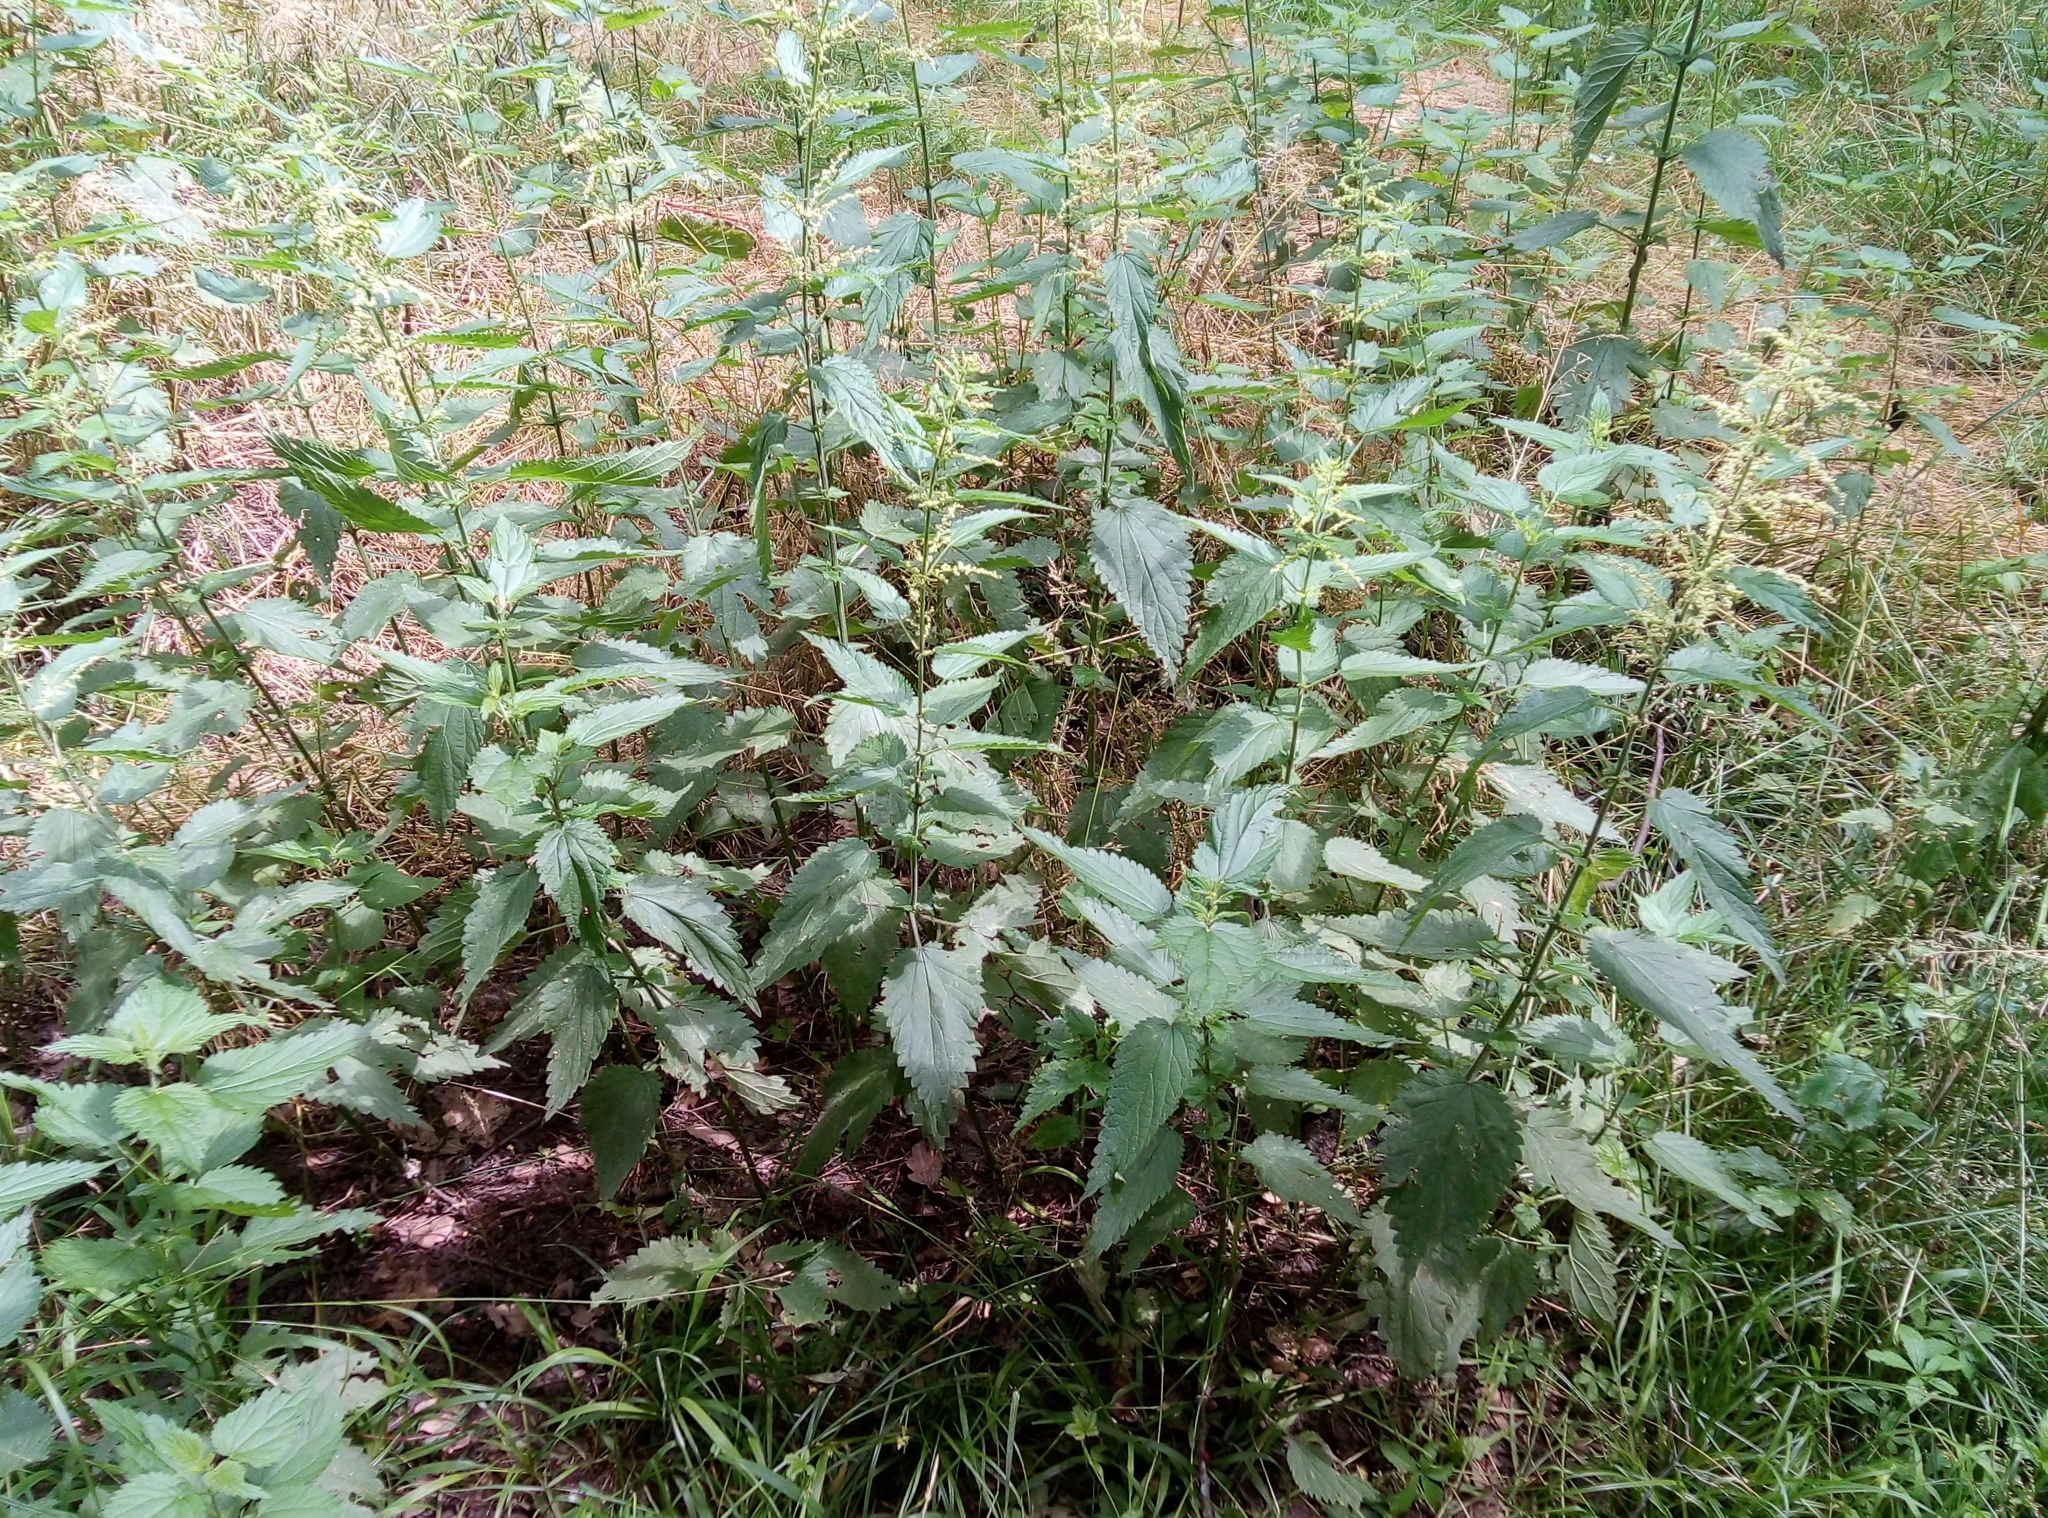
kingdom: Plantae
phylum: Tracheophyta
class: Magnoliopsida
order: Rosales
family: Urticaceae
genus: Urtica
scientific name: Urtica dioica
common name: Common nettle
